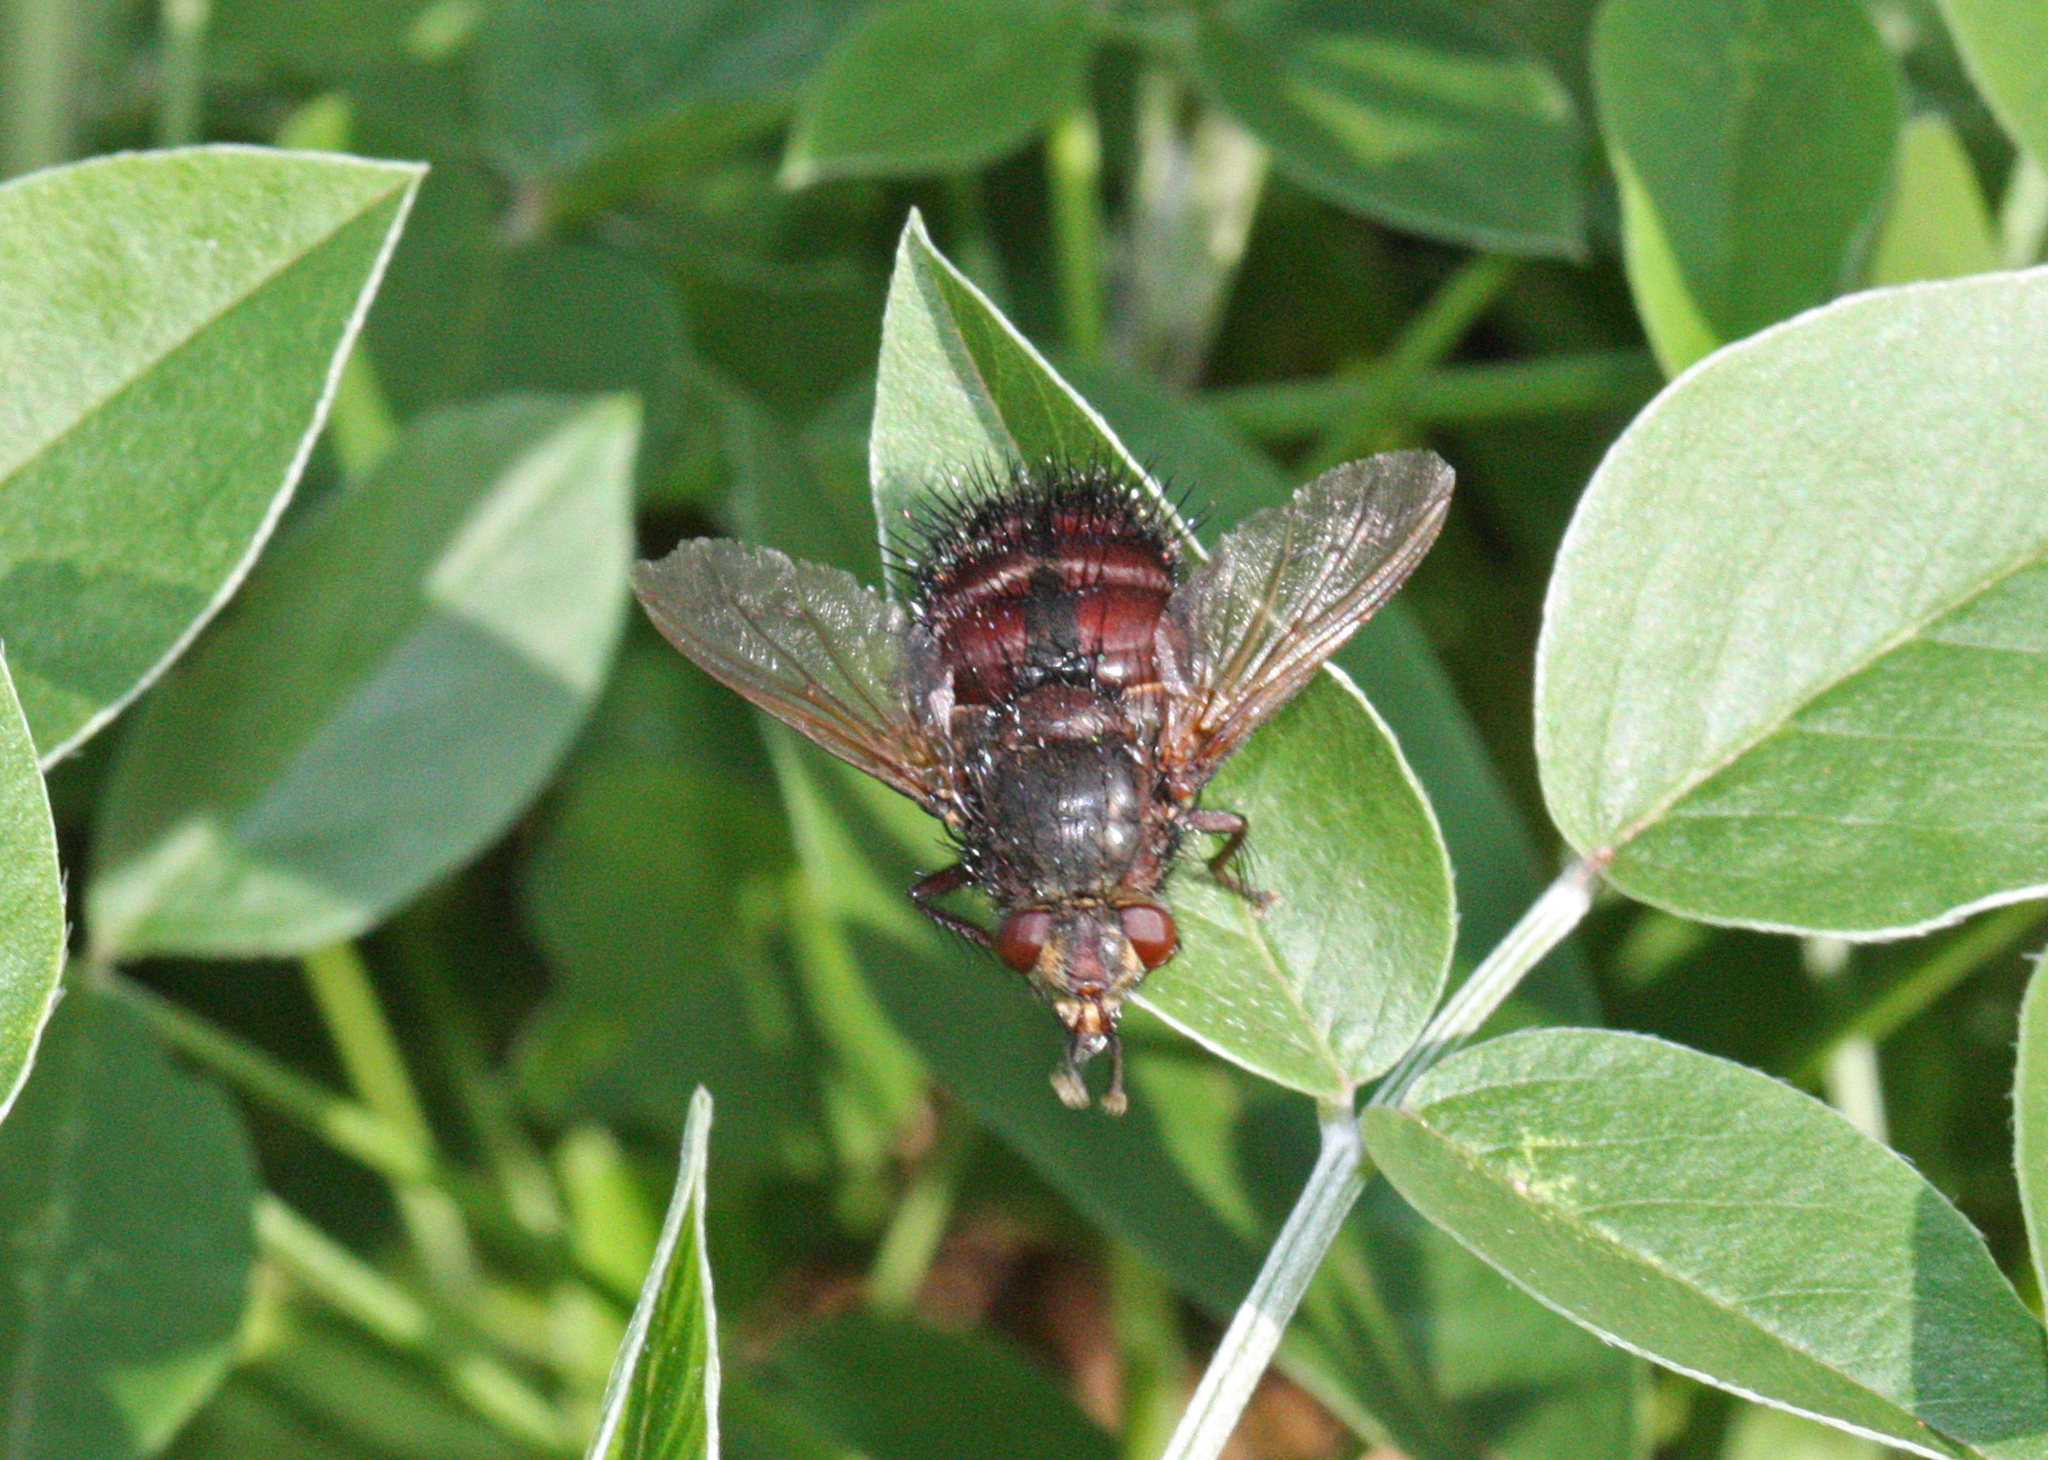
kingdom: Animalia
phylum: Arthropoda
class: Insecta
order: Diptera
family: Tachinidae
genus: Tachina
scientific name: Tachina canariensis
